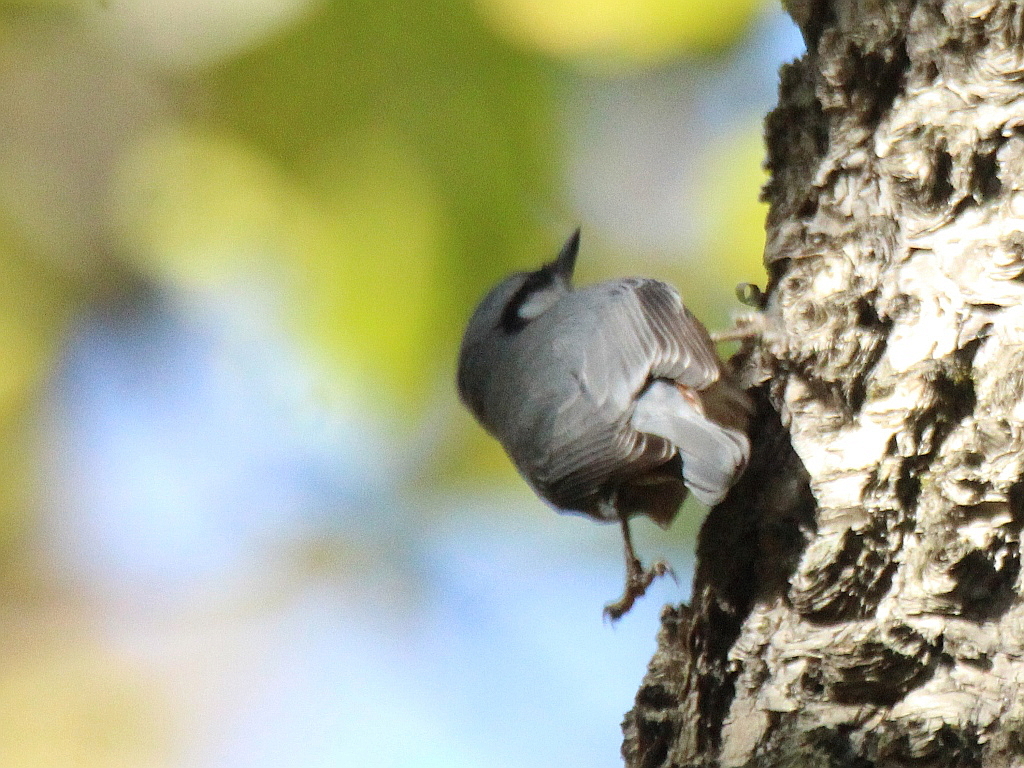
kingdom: Animalia
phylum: Chordata
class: Aves
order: Passeriformes
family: Sittidae
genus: Sitta
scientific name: Sitta europaea
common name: Eurasian nuthatch
